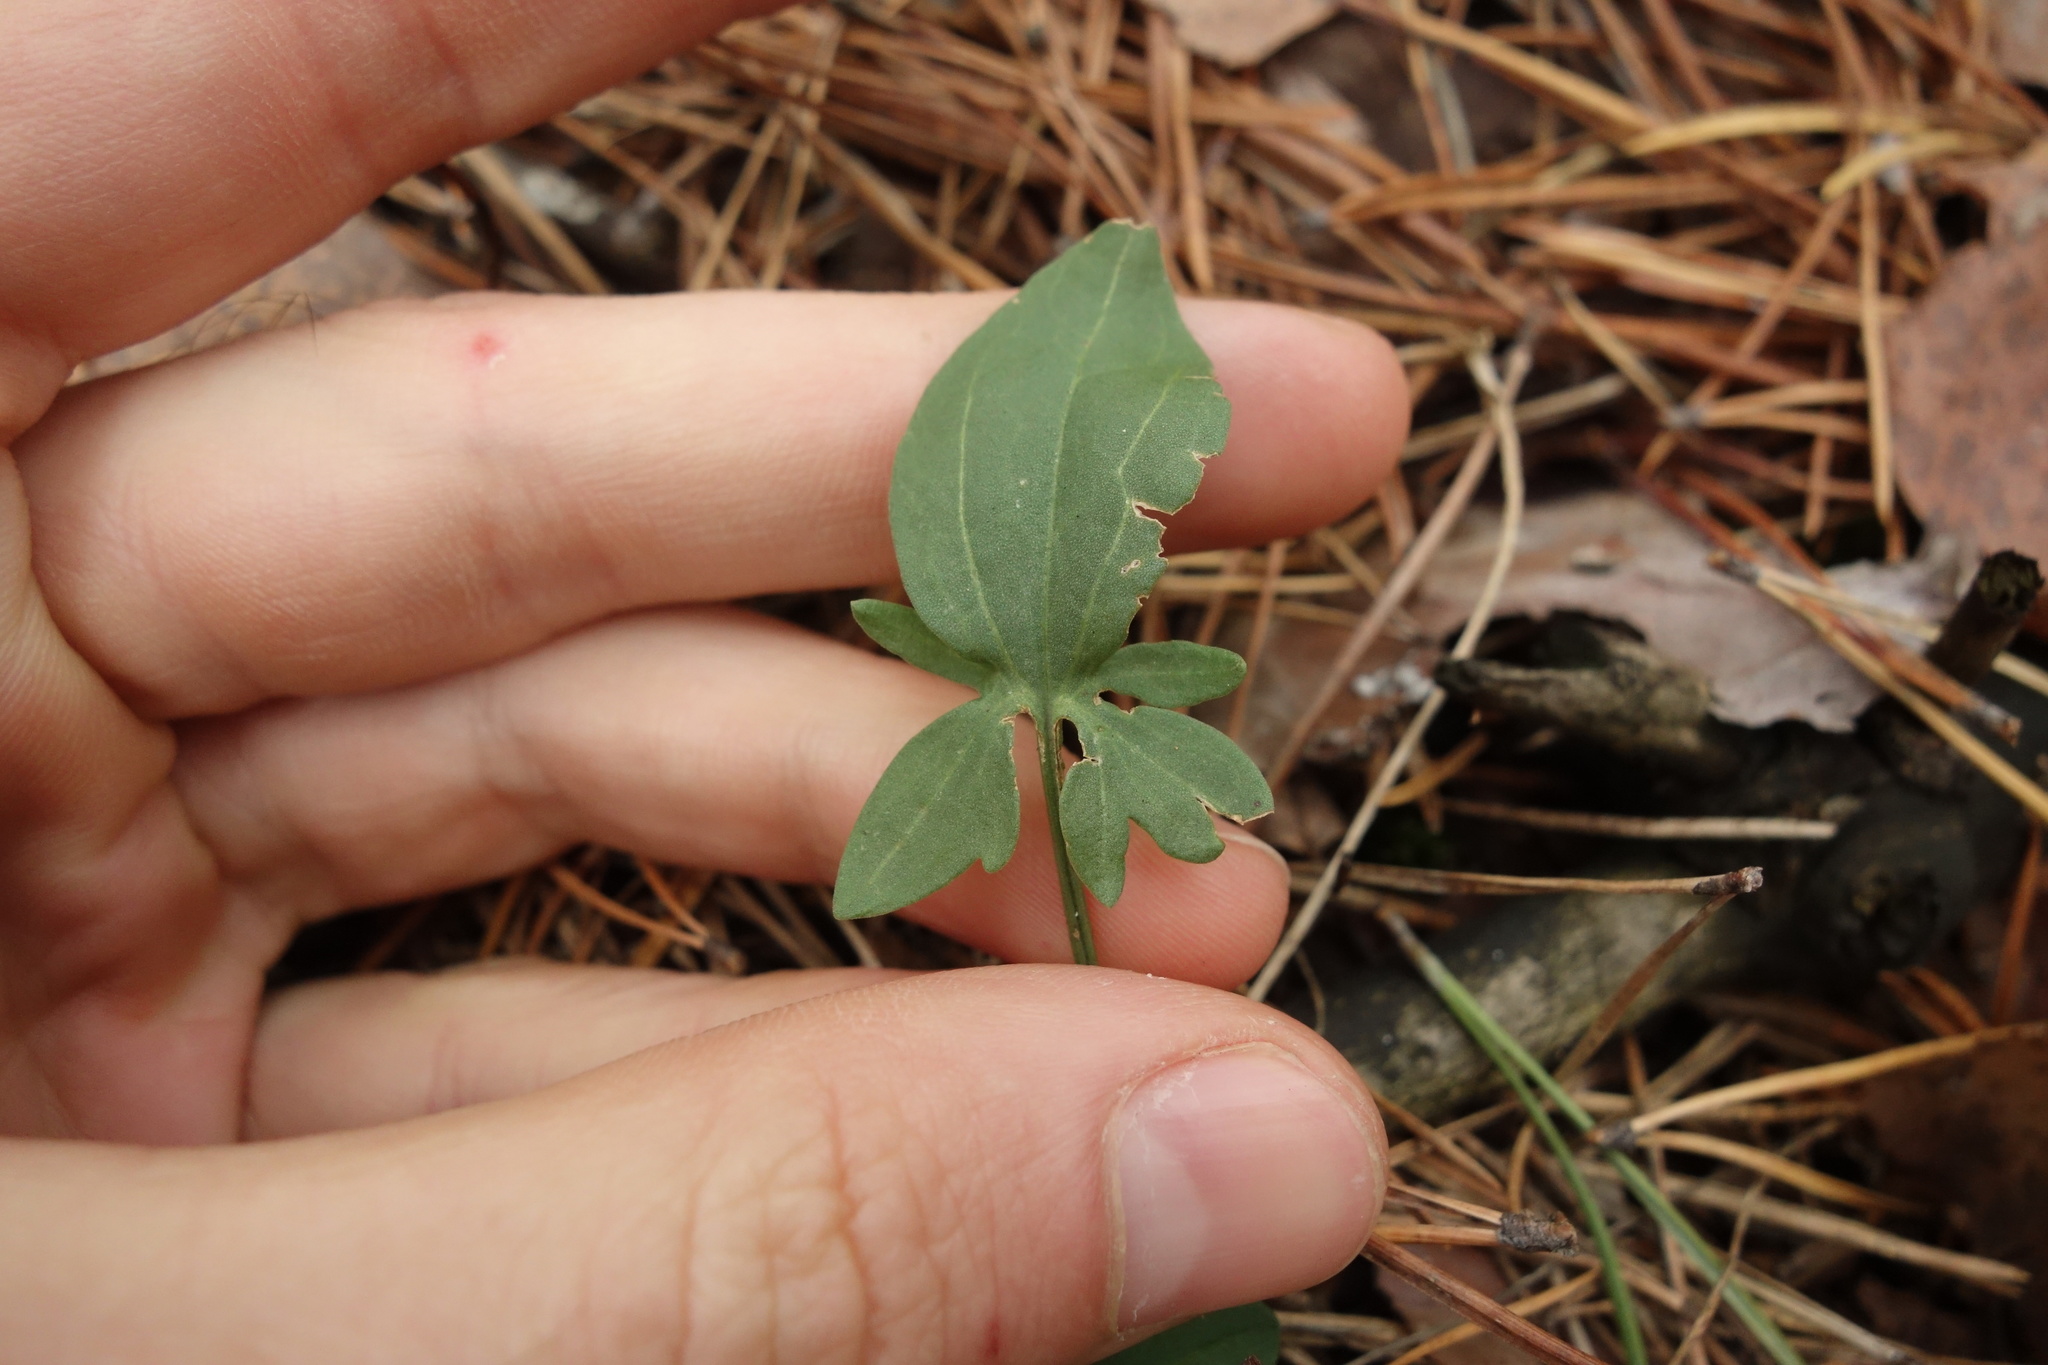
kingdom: Plantae
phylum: Tracheophyta
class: Magnoliopsida
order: Caryophyllales
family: Polygonaceae
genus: Rumex
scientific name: Rumex acetosella
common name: Common sheep sorrel
